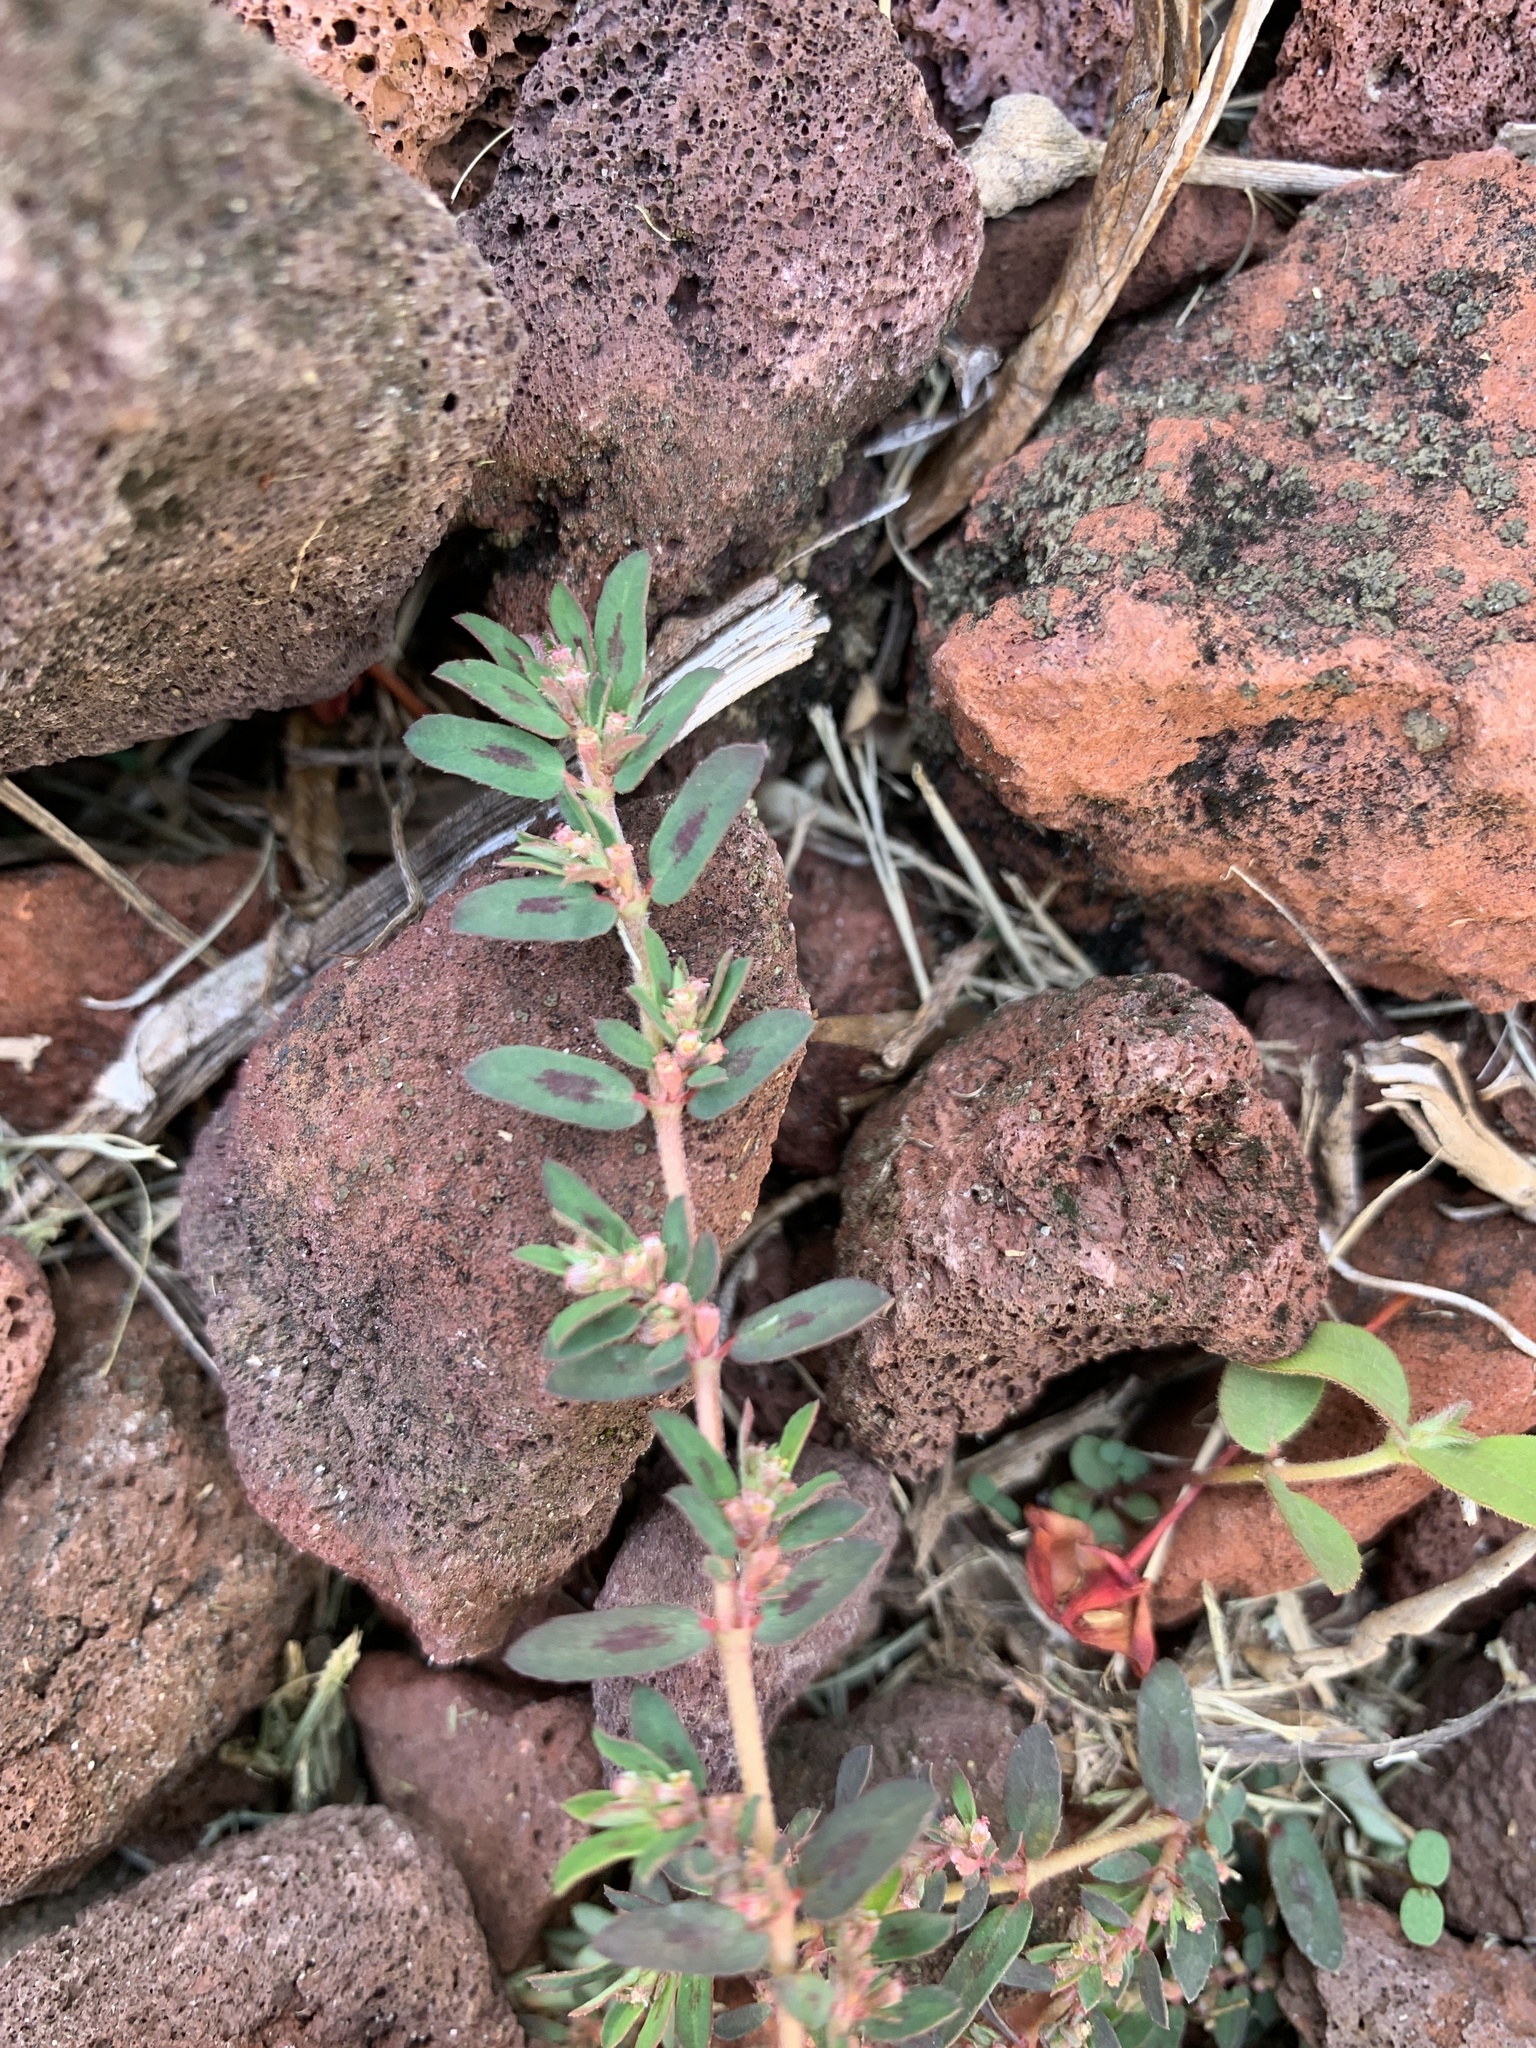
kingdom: Plantae
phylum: Tracheophyta
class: Magnoliopsida
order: Malpighiales
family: Euphorbiaceae
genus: Euphorbia
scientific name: Euphorbia maculata
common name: Spotted spurge
